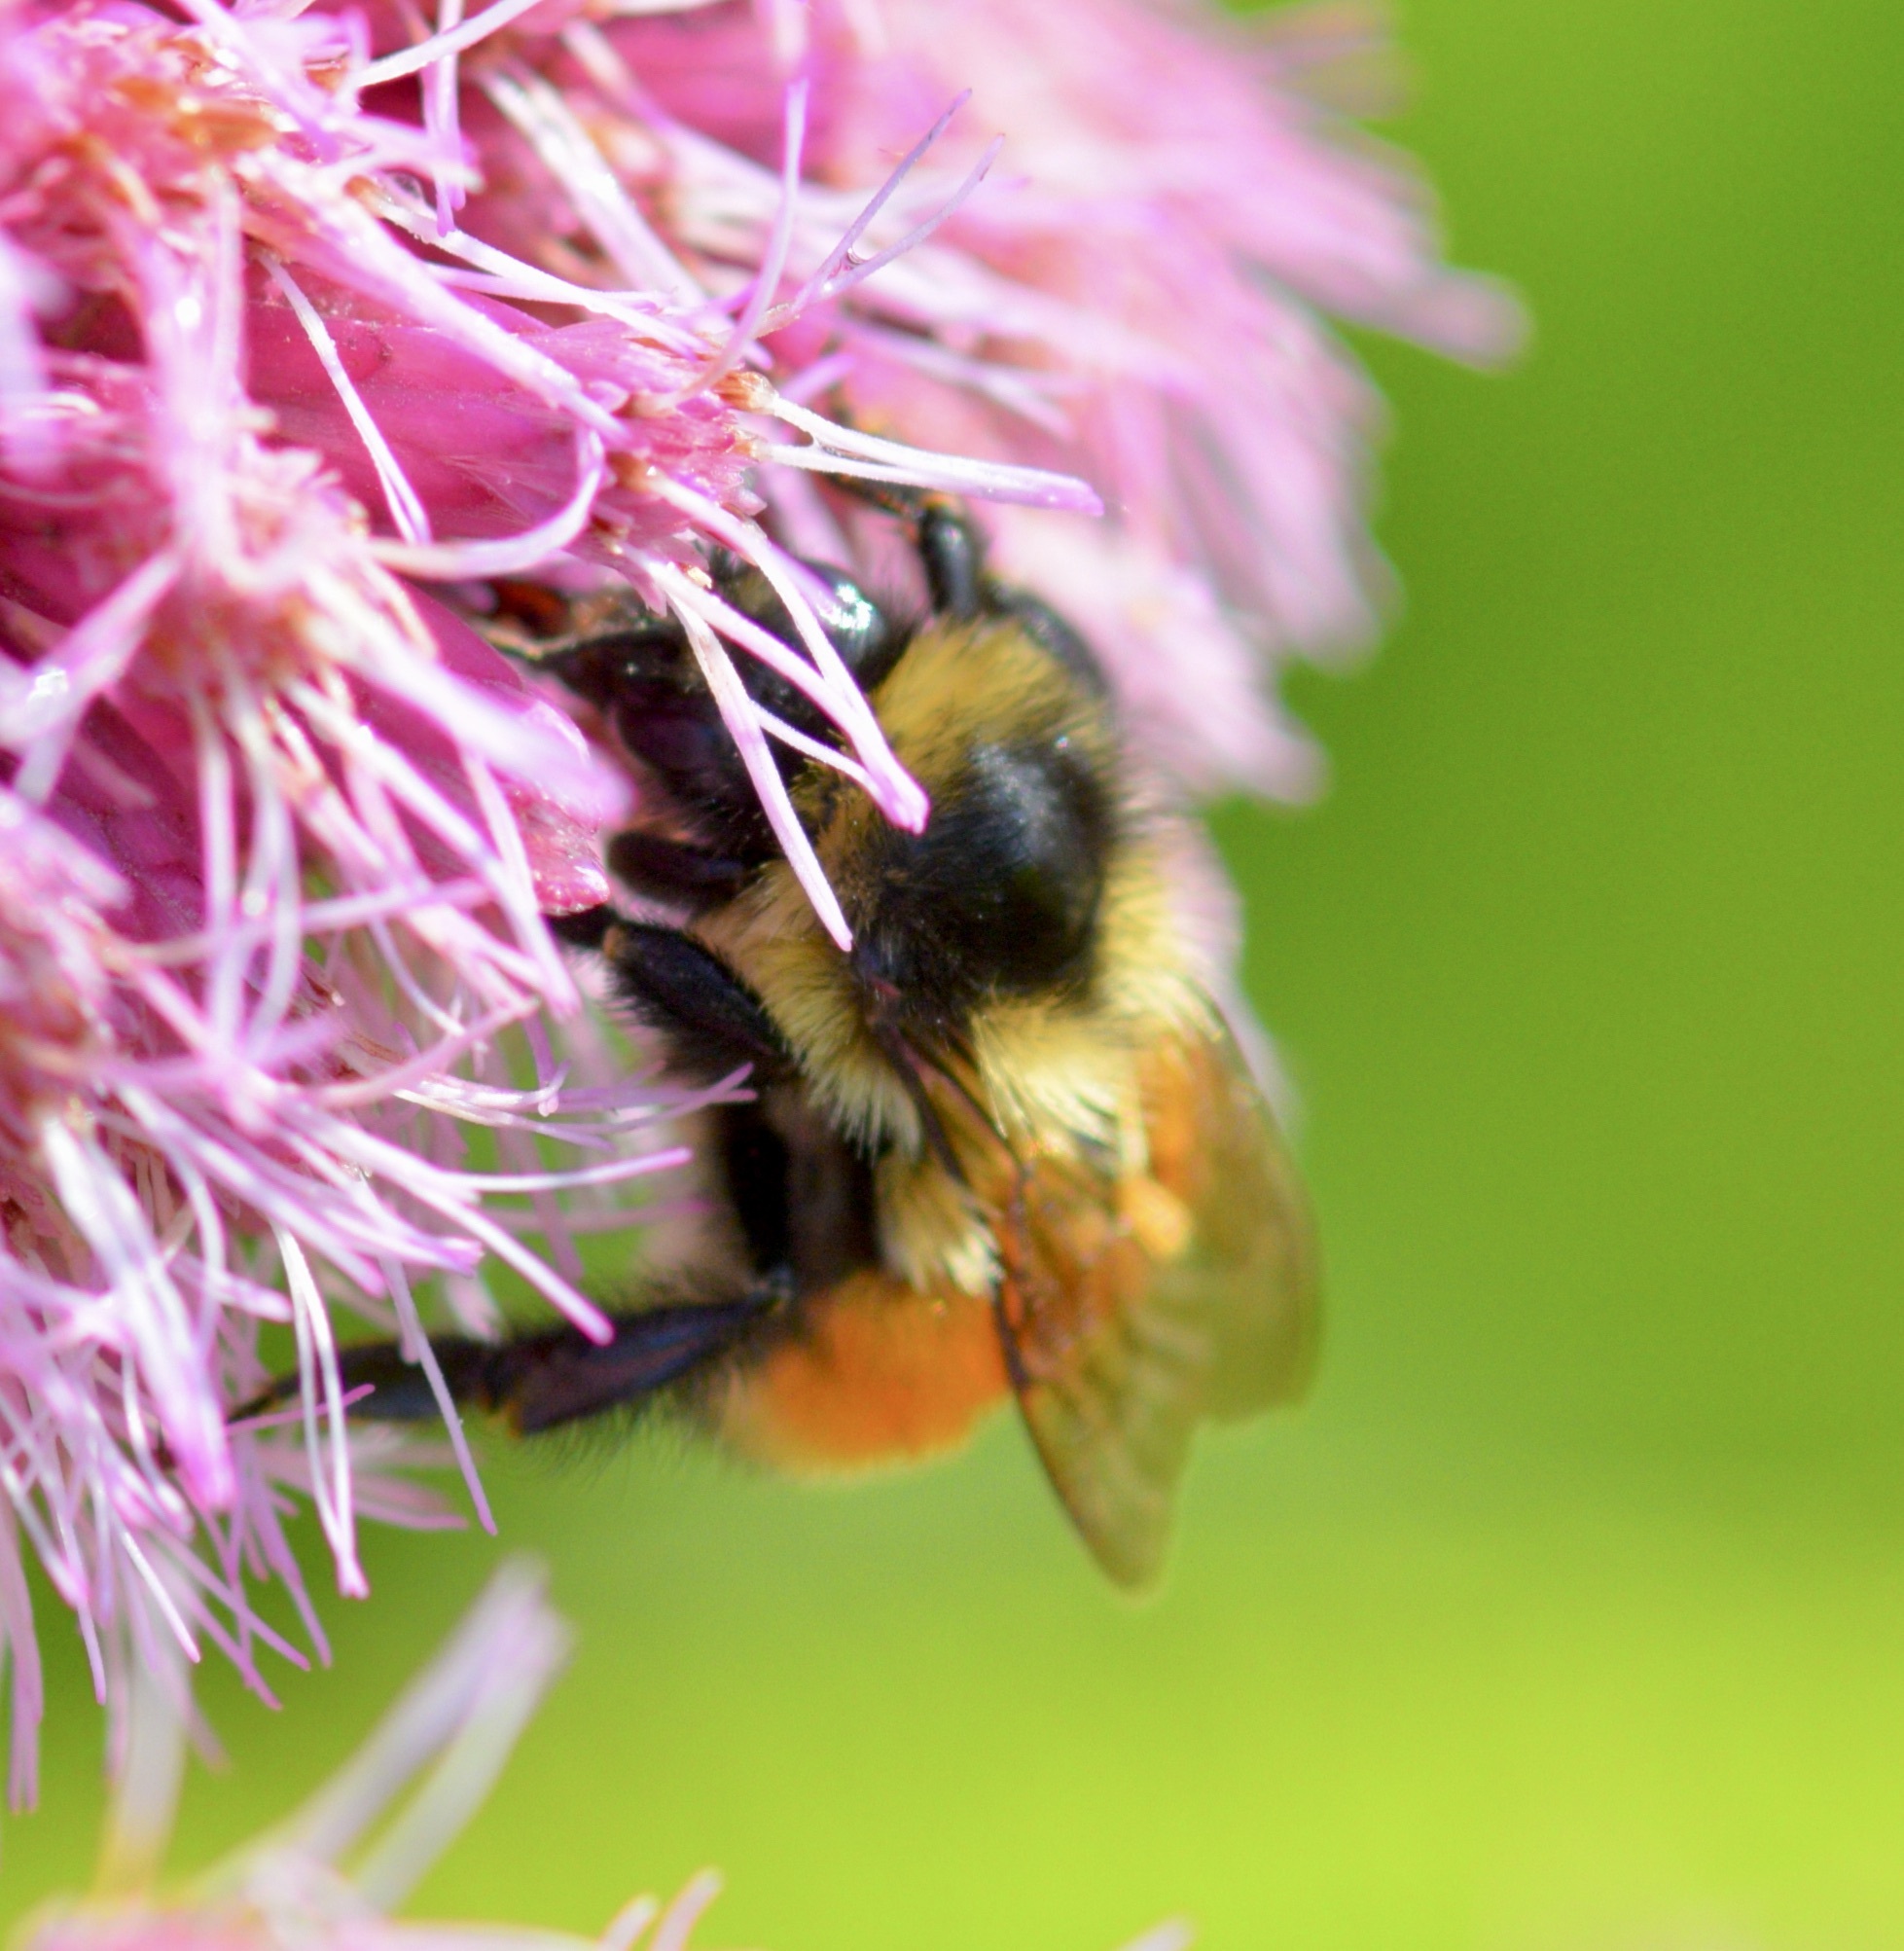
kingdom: Animalia
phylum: Arthropoda
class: Insecta
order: Hymenoptera
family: Apidae
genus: Bombus
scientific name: Bombus ternarius
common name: Tri-colored bumble bee
